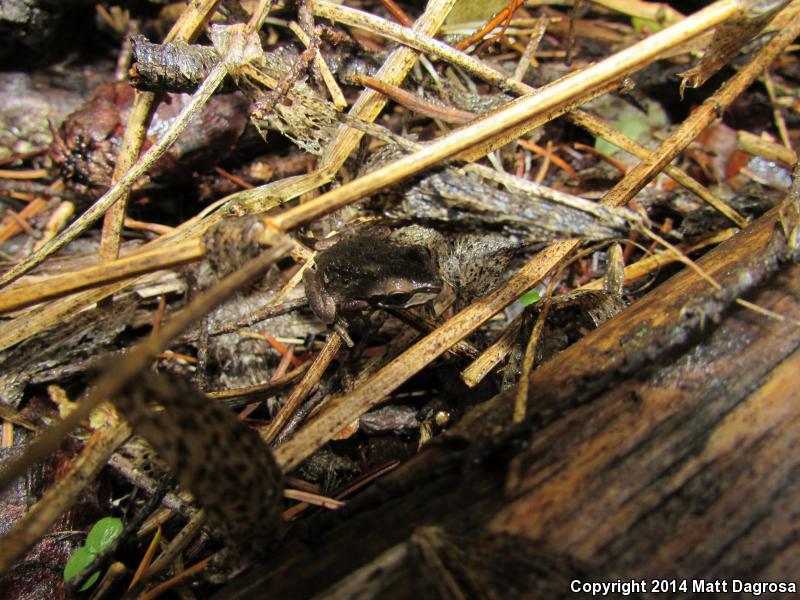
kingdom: Animalia
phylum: Chordata
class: Amphibia
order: Anura
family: Hylidae
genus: Pseudacris
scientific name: Pseudacris regilla
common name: Pacific chorus frog
